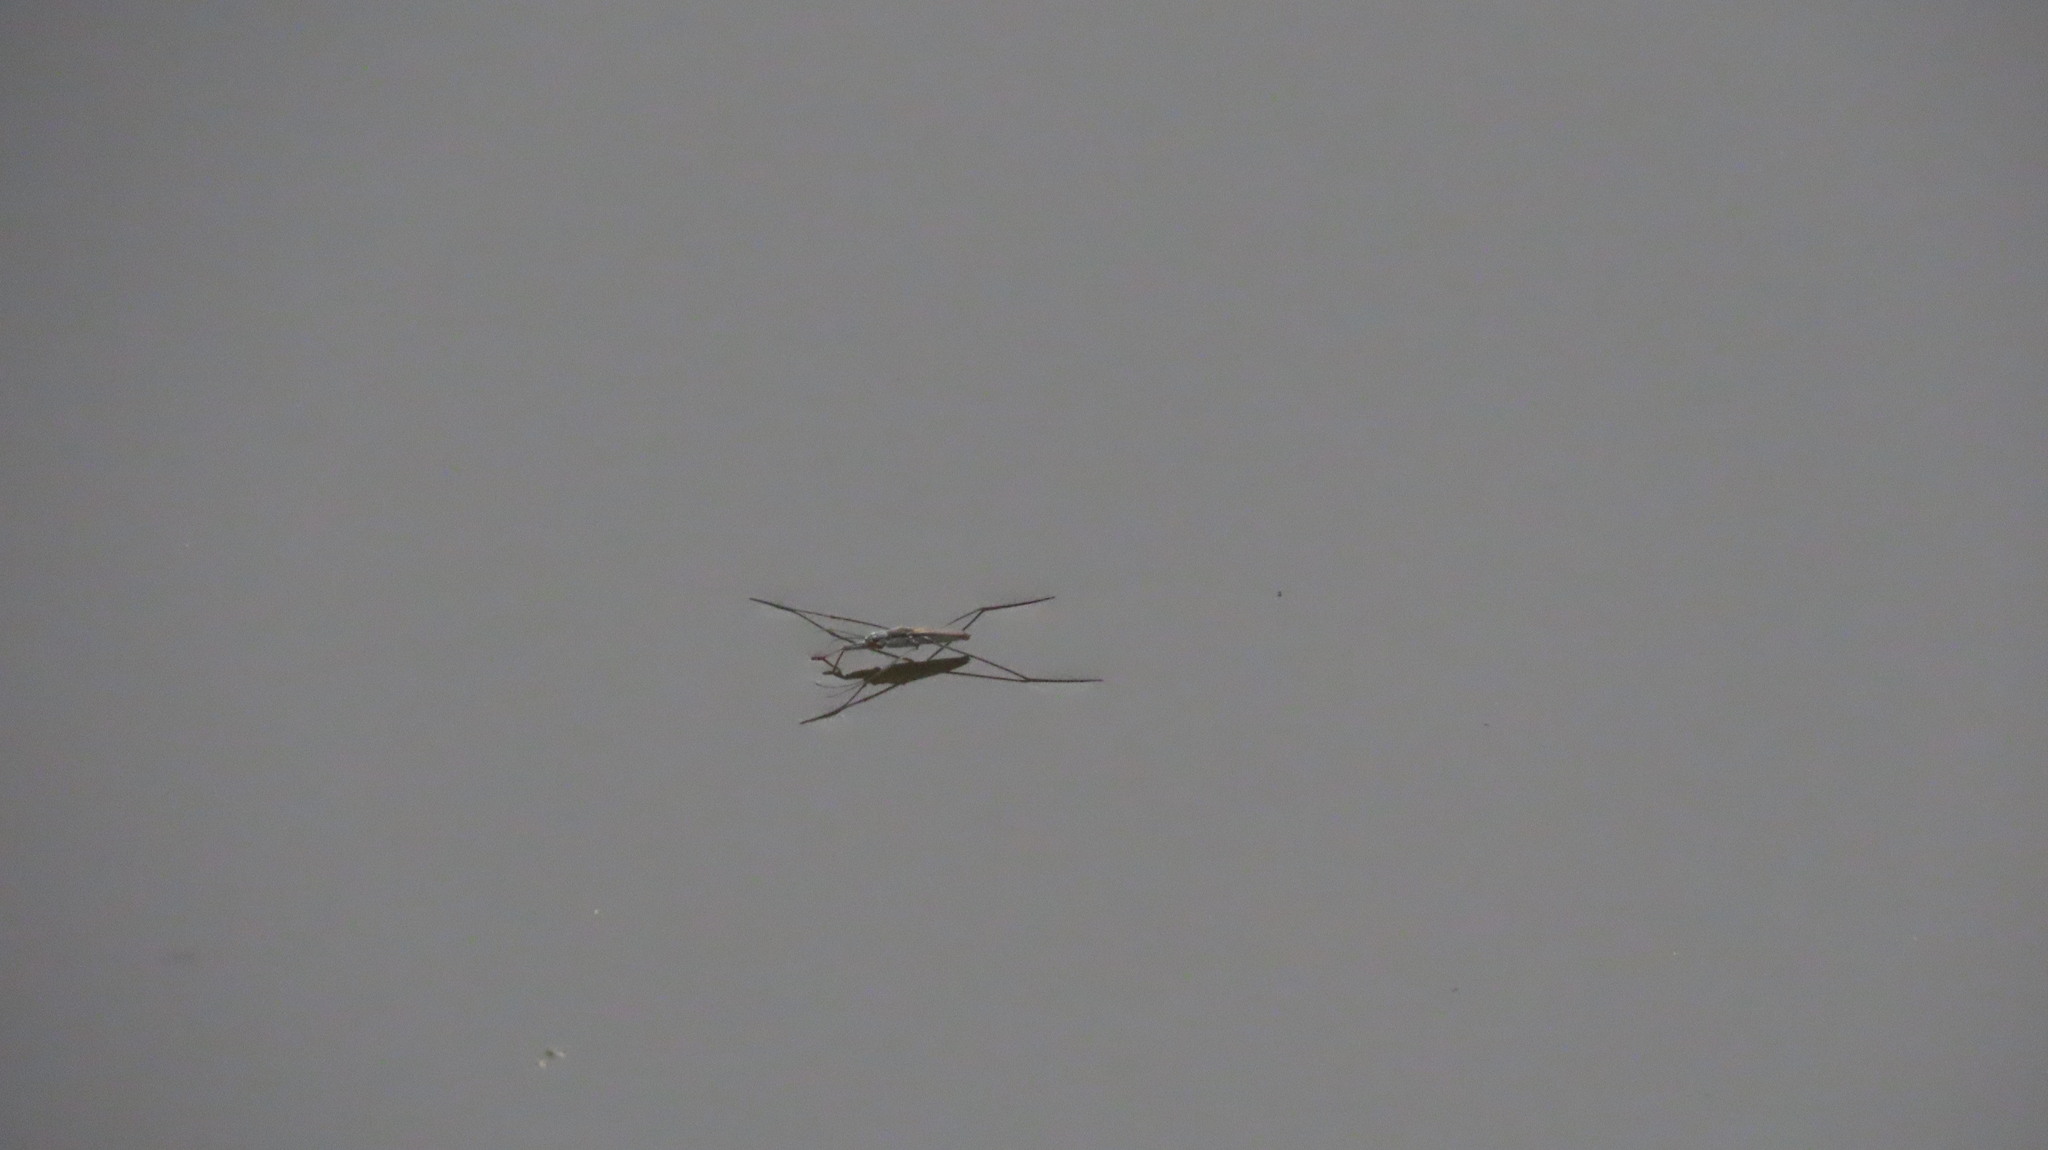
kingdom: Animalia
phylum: Arthropoda
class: Insecta
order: Hemiptera
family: Gerridae
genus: Aquarius
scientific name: Aquarius adelaidis
